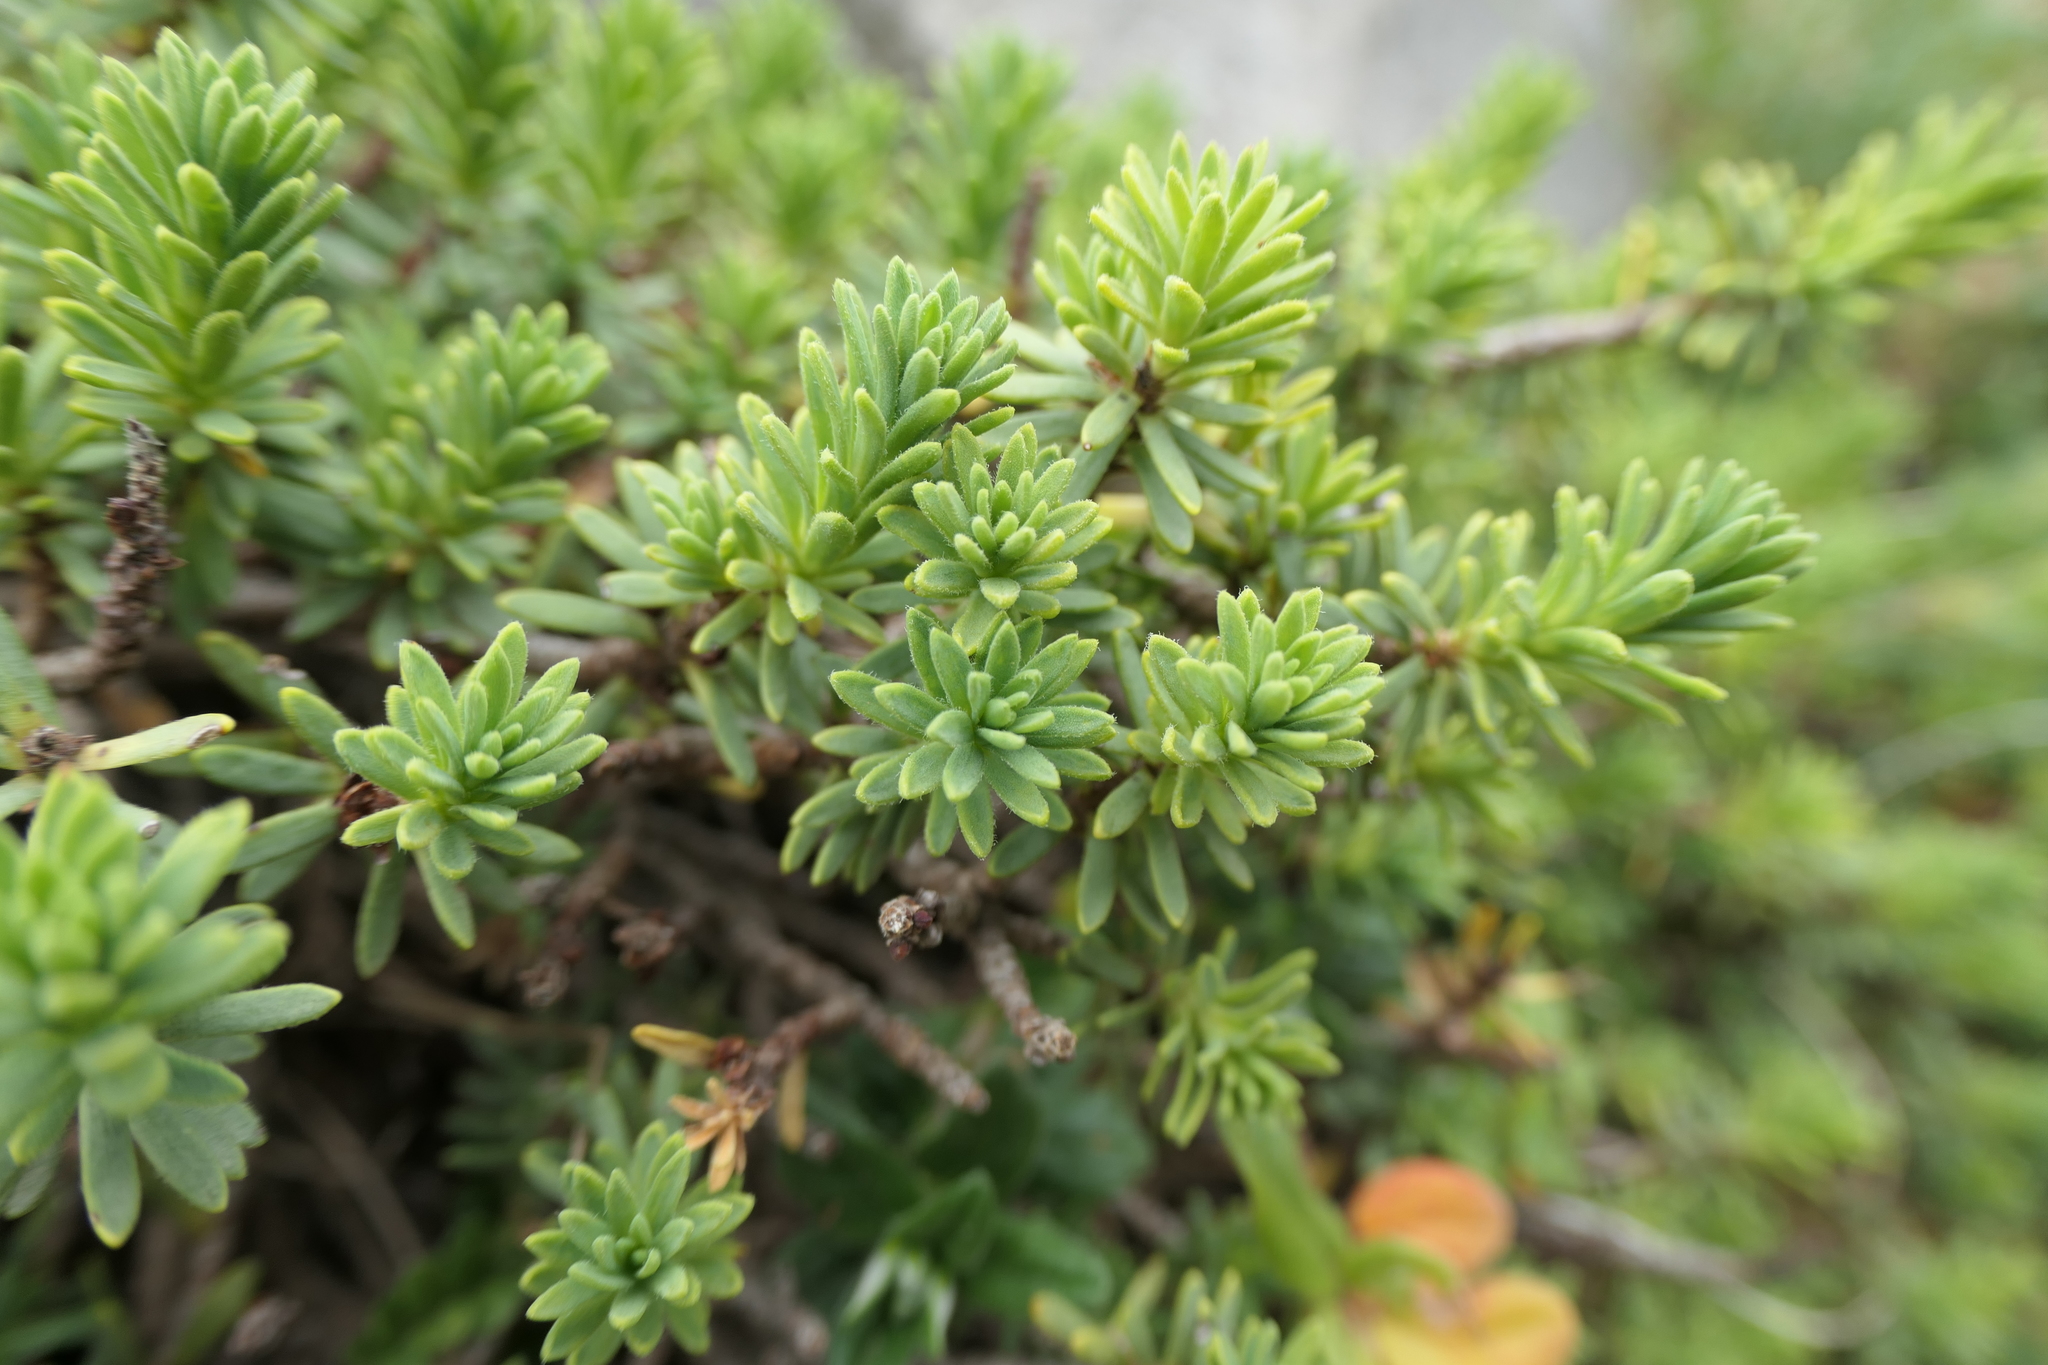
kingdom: Plantae
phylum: Tracheophyta
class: Magnoliopsida
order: Malvales
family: Thymelaeaceae
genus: Thymelaea
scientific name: Thymelaea tinctoria
